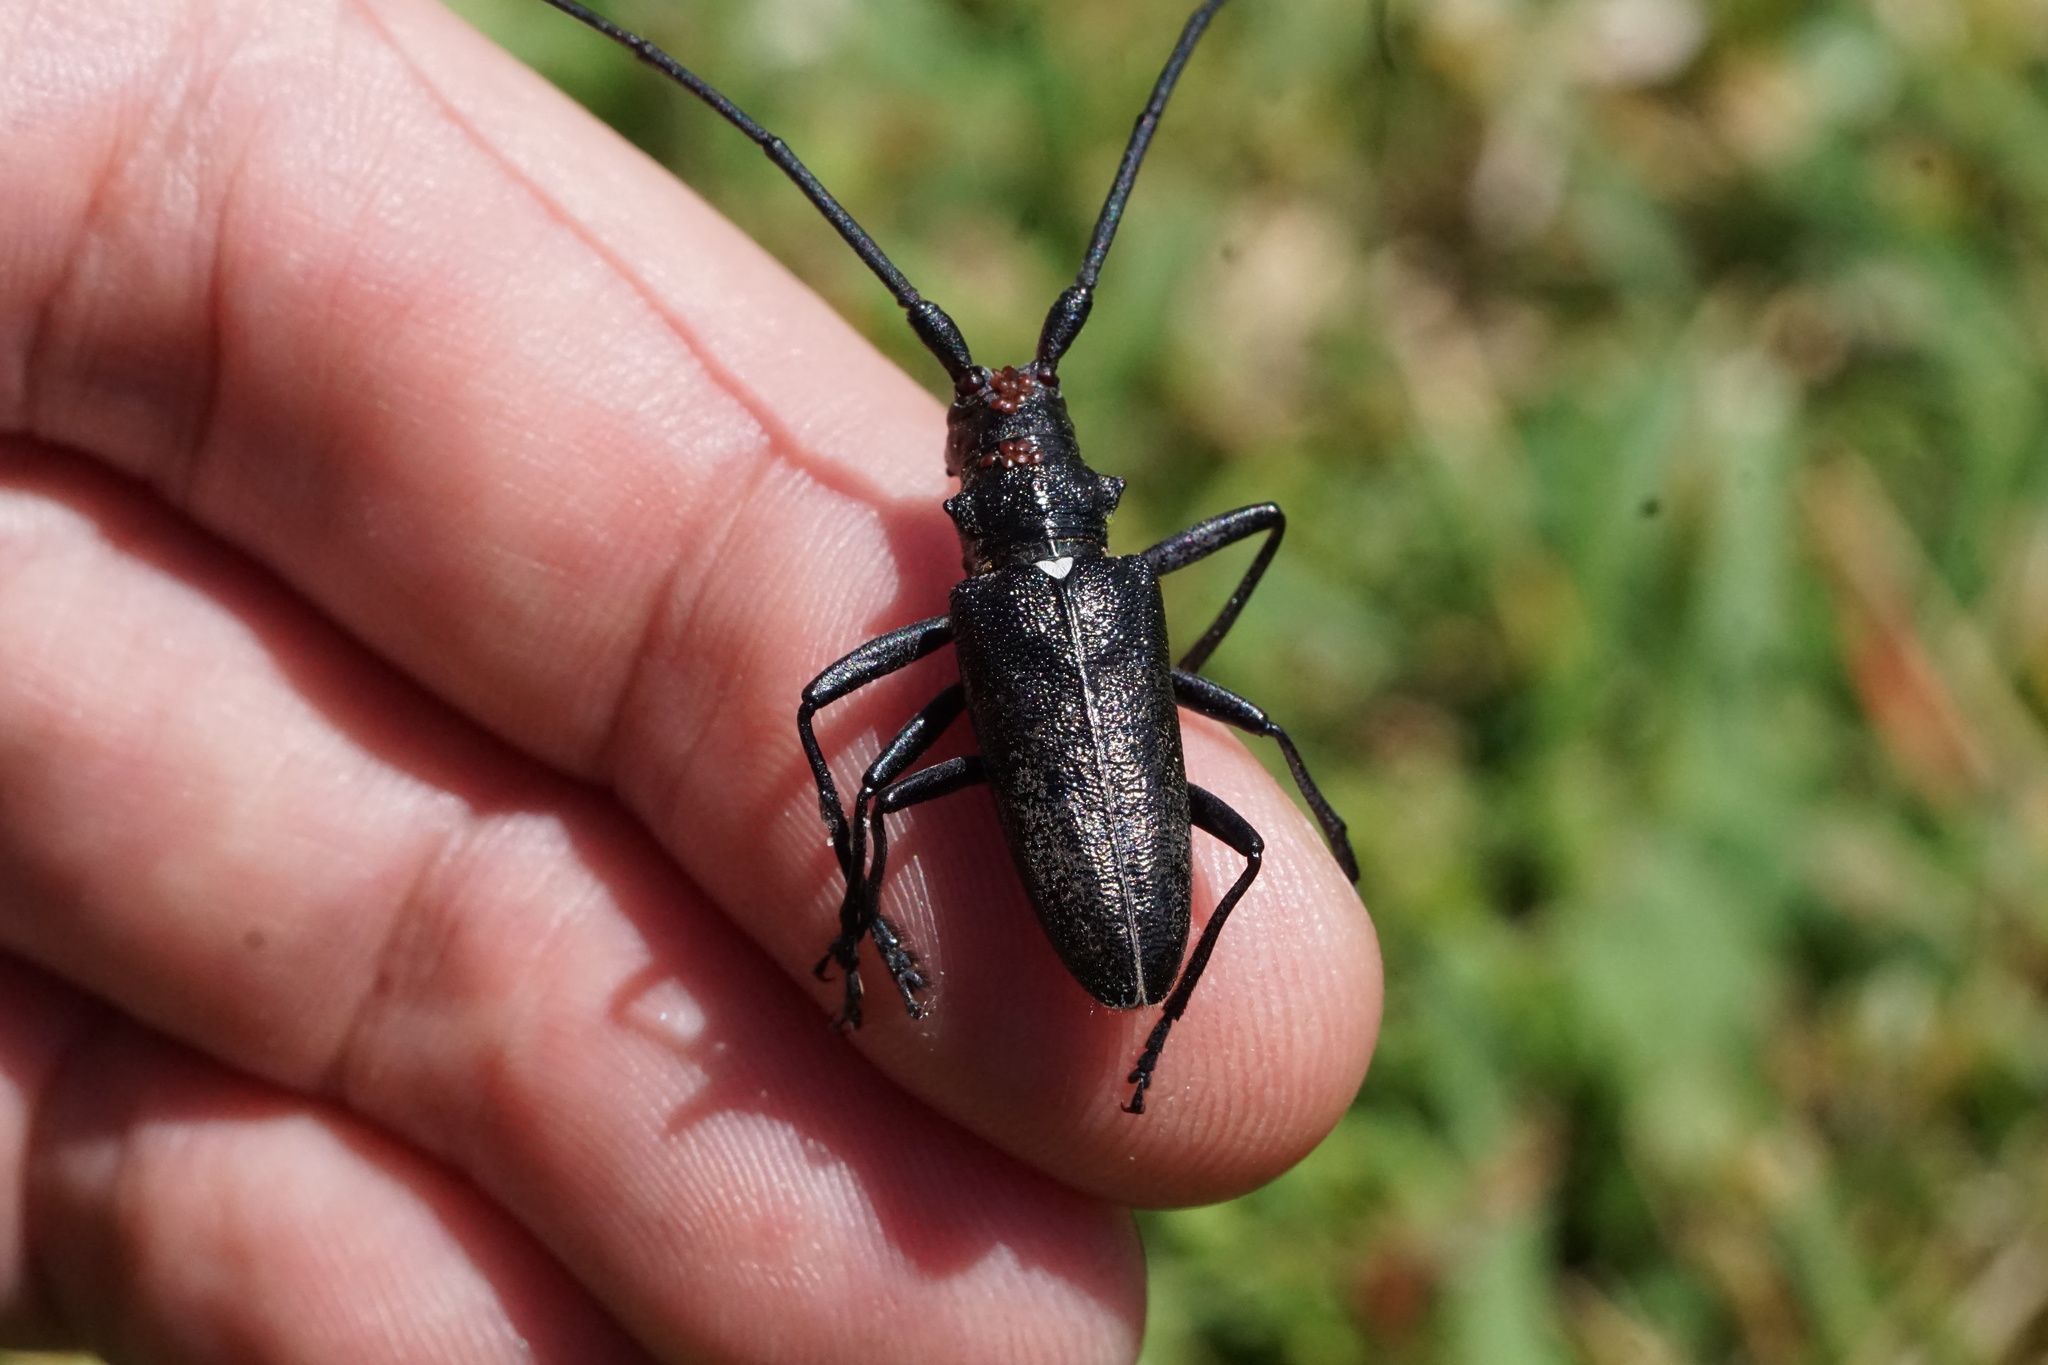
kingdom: Animalia
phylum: Arthropoda
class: Insecta
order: Coleoptera
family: Cerambycidae
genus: Monochamus
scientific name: Monochamus scutellatus
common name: White-spotted sawyer beetle
